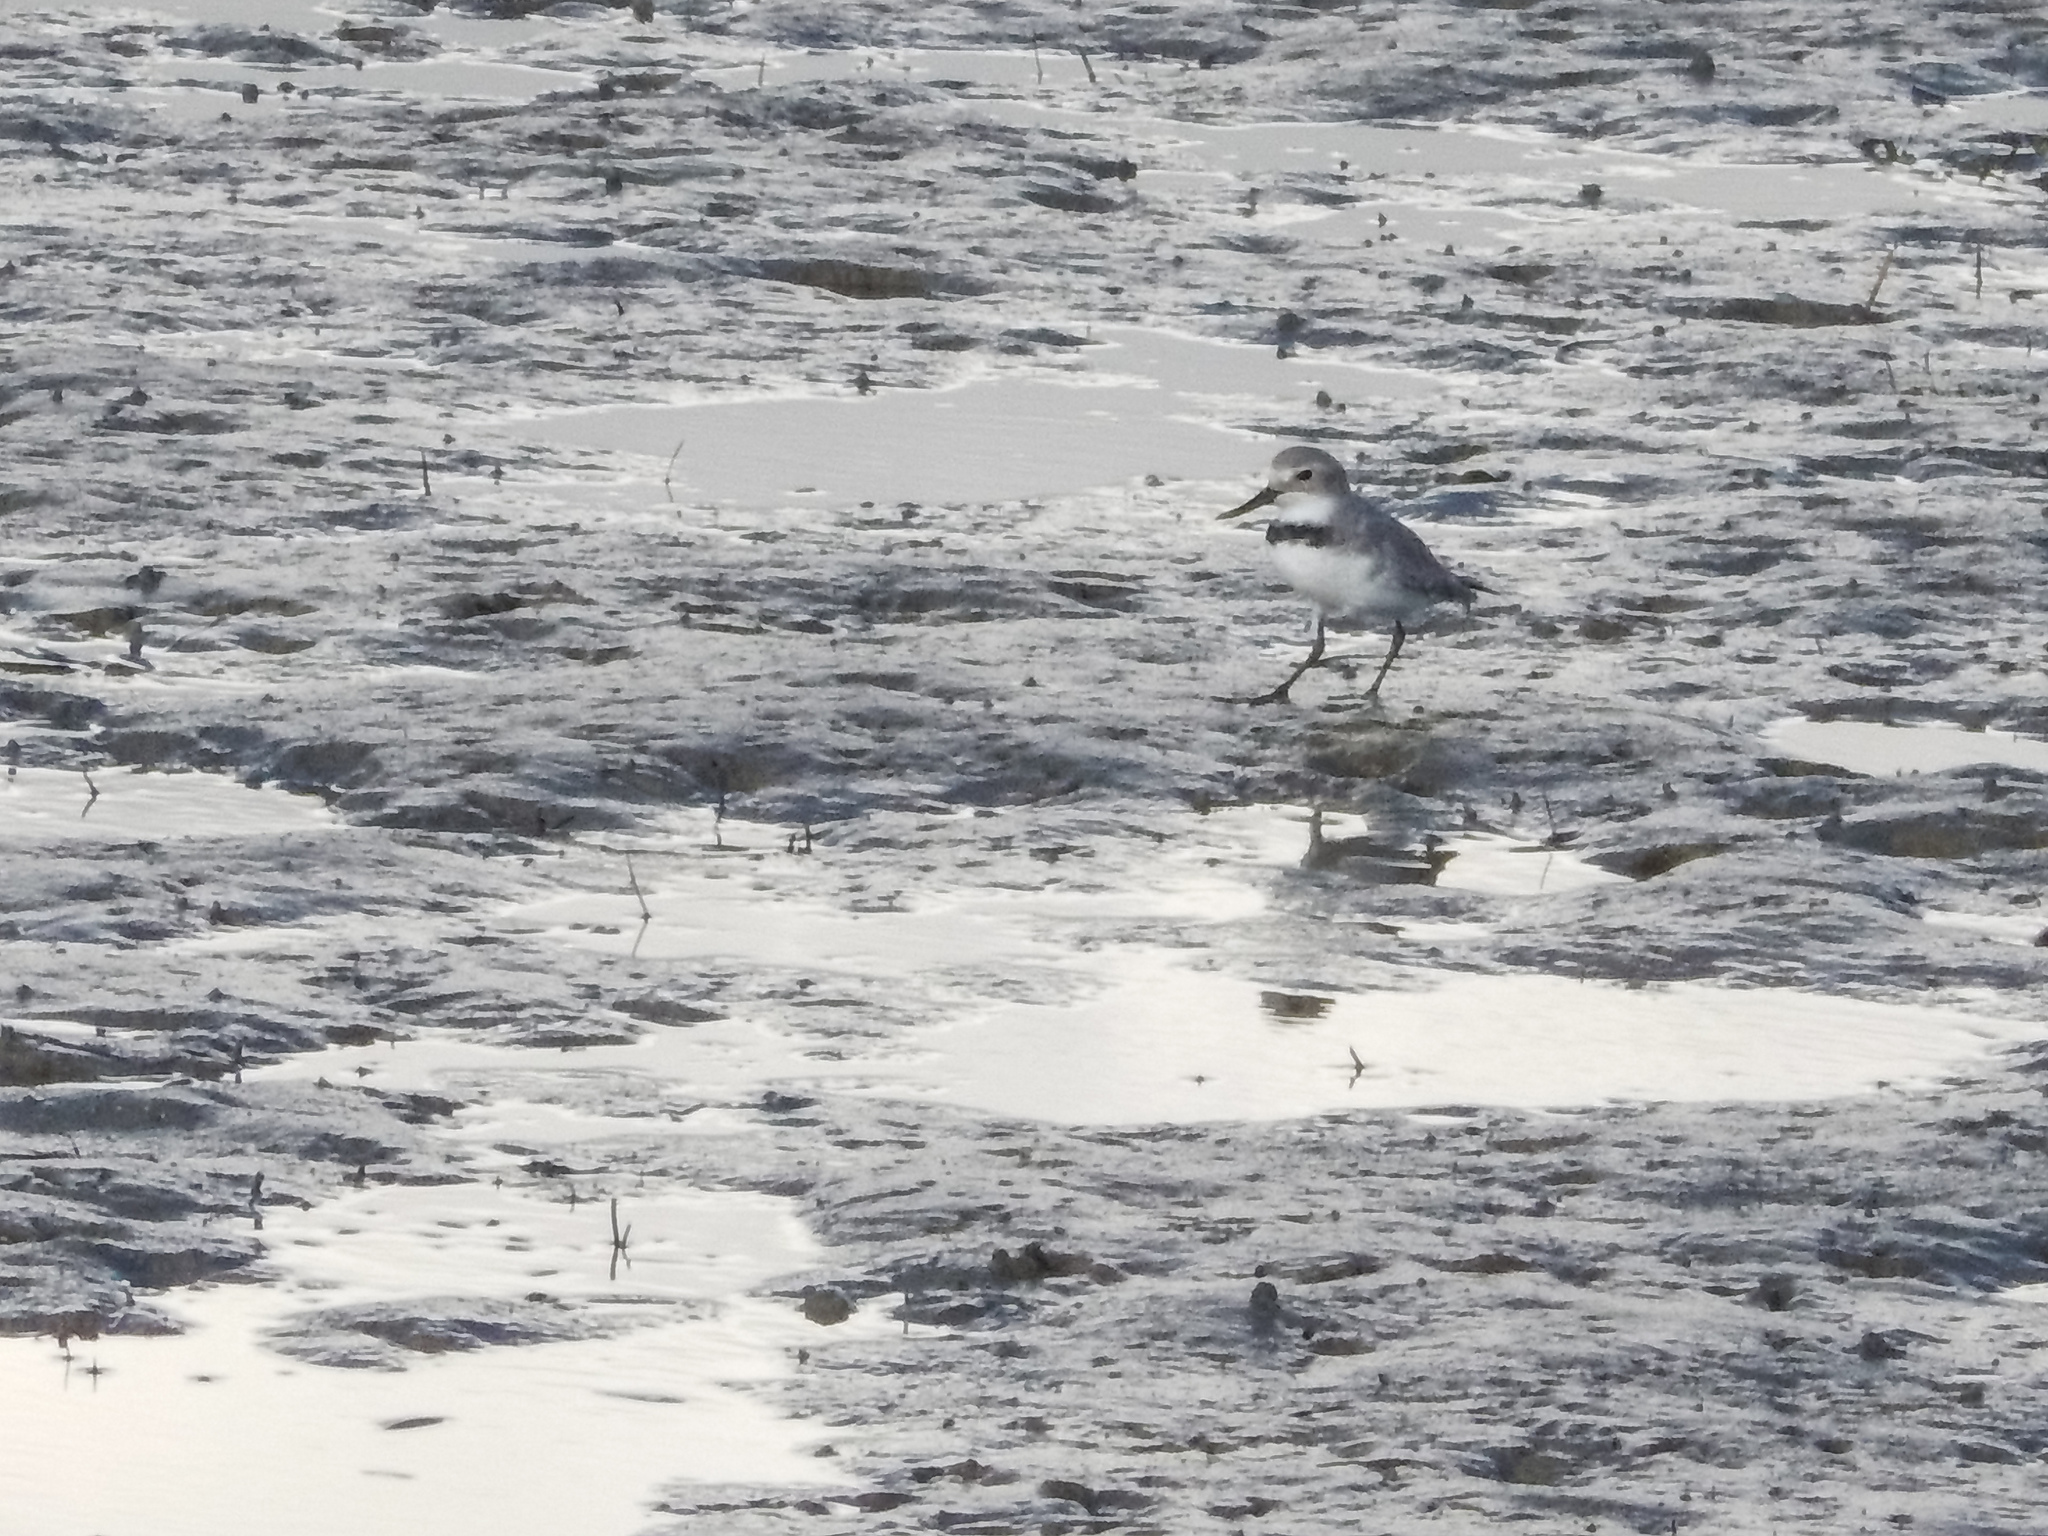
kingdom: Animalia
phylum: Chordata
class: Aves
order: Charadriiformes
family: Charadriidae
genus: Anarhynchus
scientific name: Anarhynchus frontalis
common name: Wrybill
